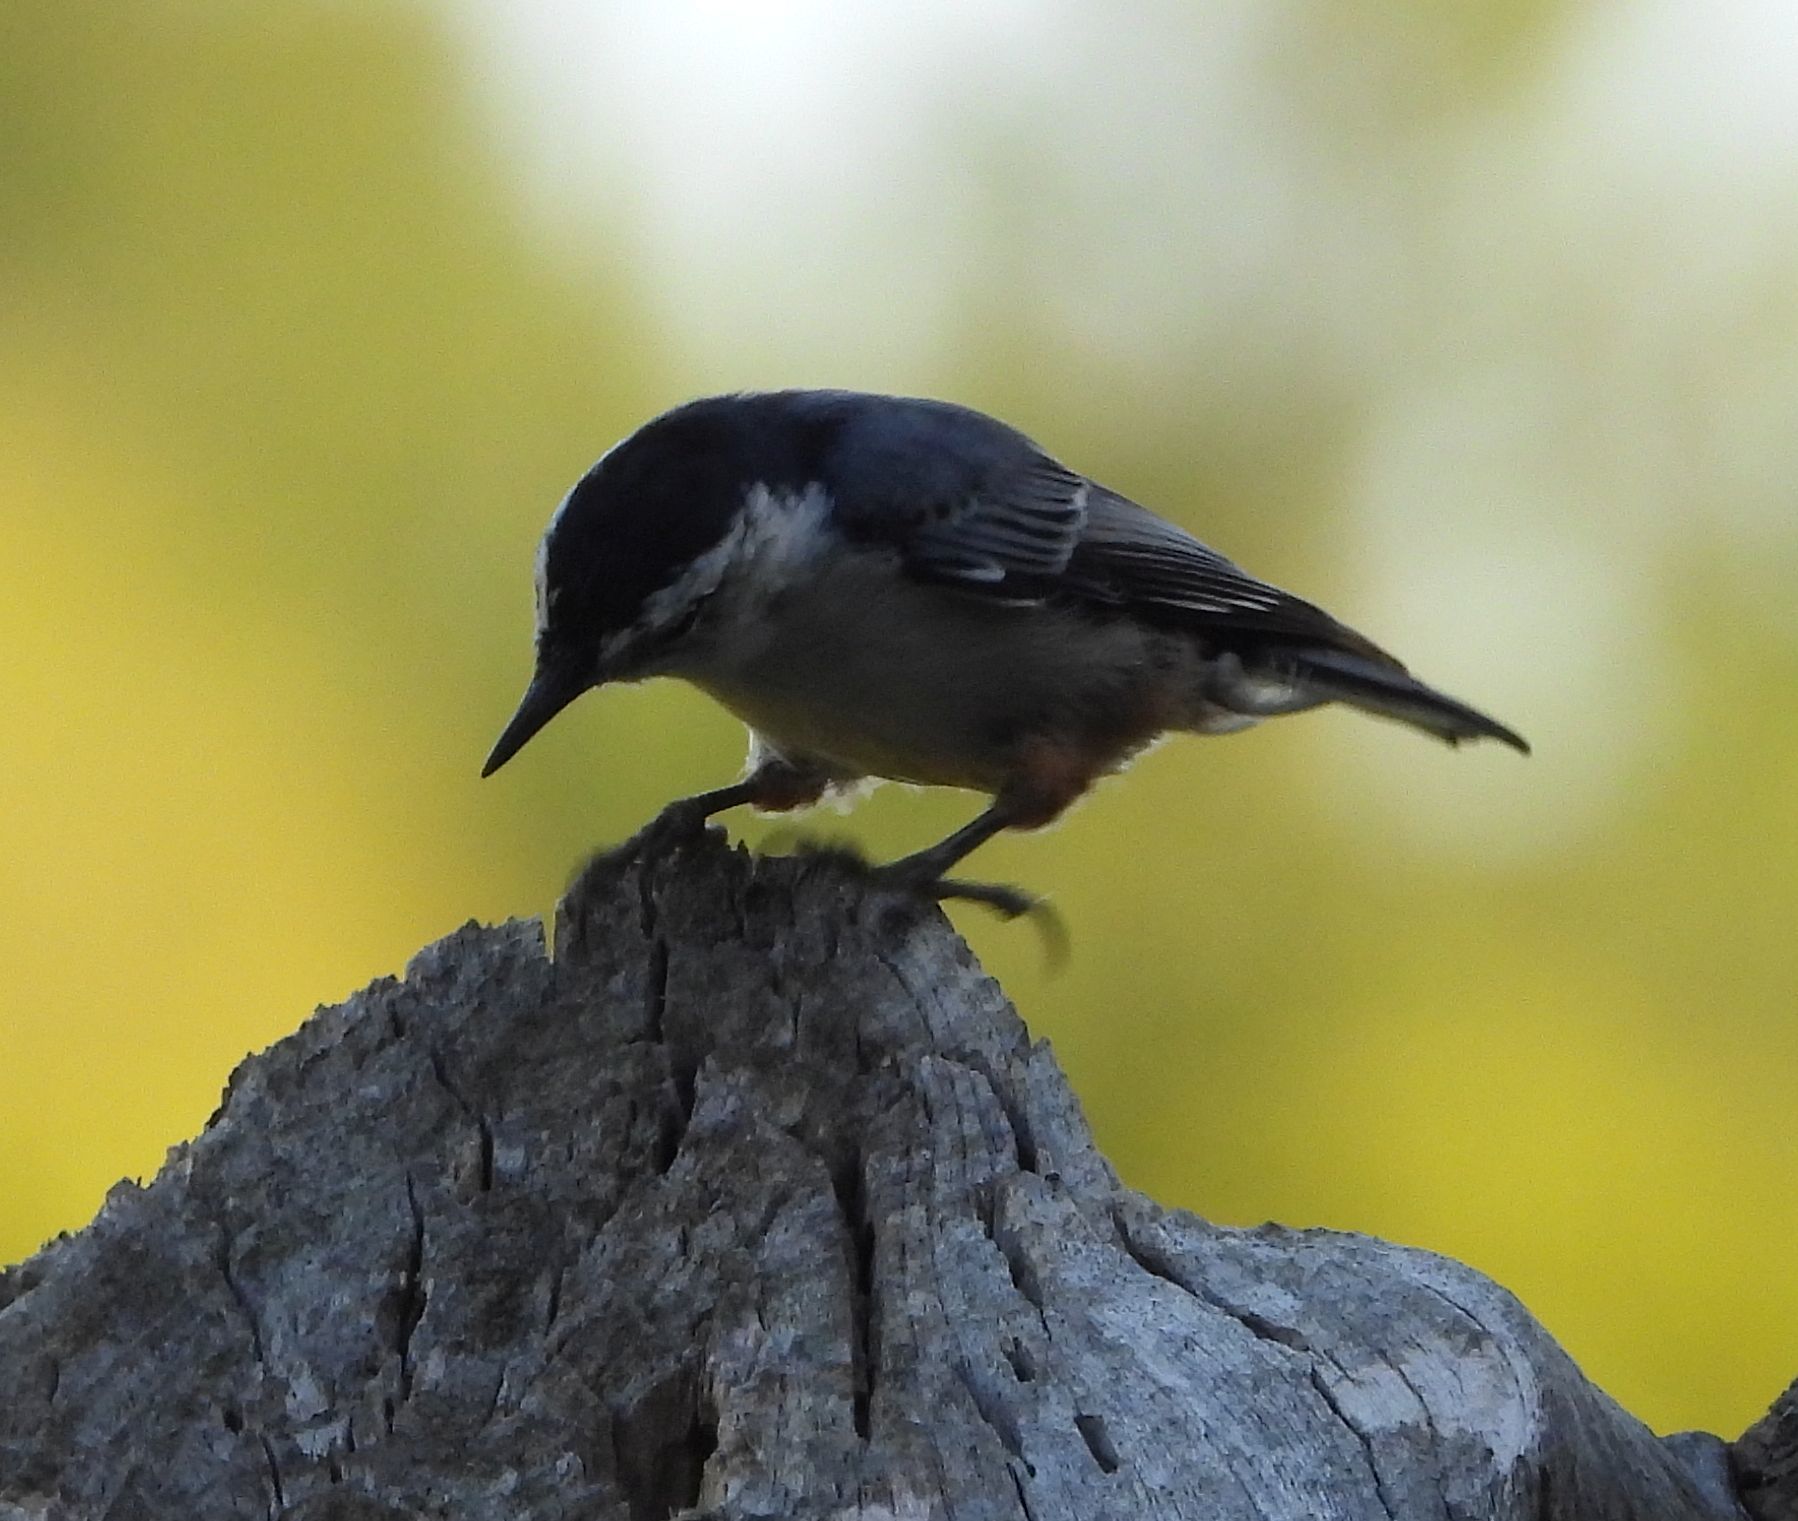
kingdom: Animalia
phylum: Chordata
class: Aves
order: Passeriformes
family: Sittidae
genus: Sitta
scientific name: Sitta carolinensis
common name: White-breasted nuthatch
